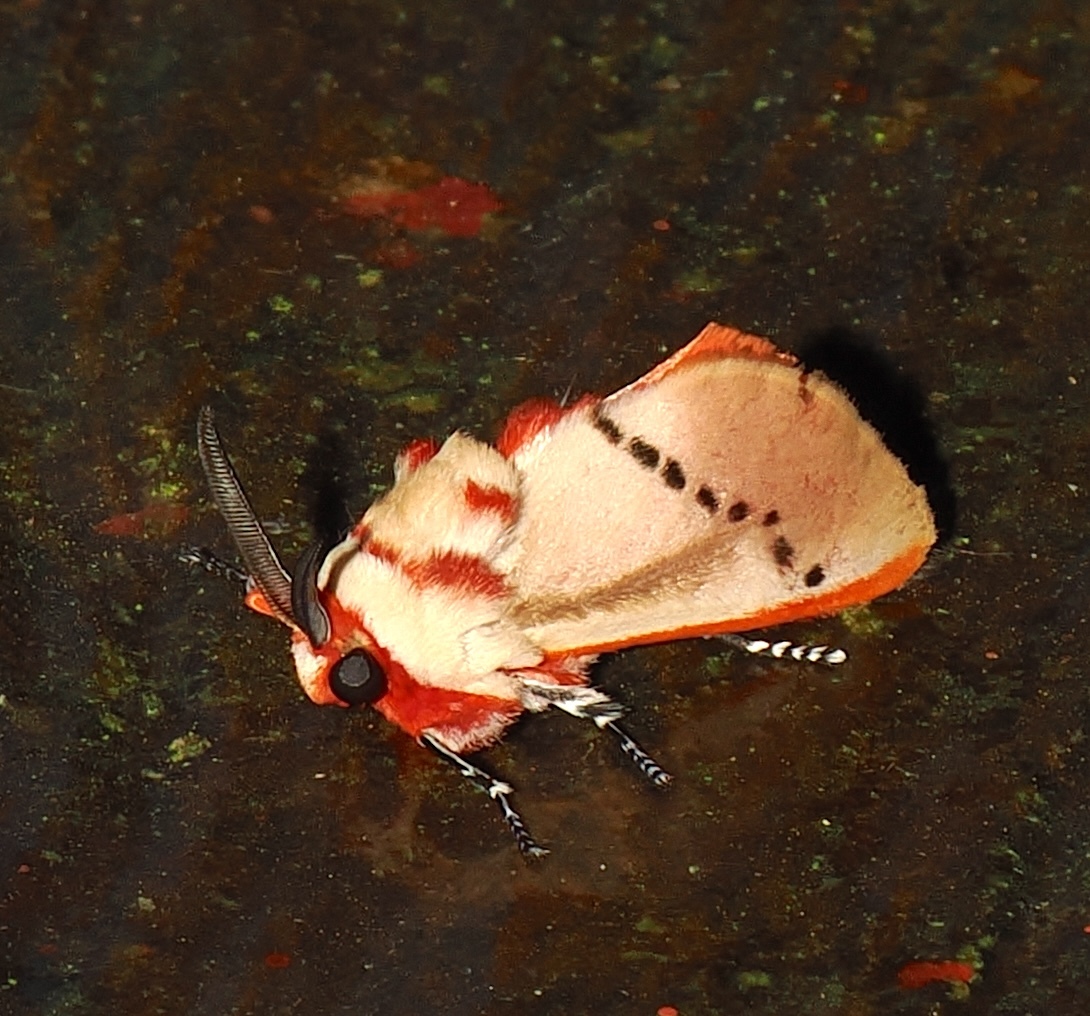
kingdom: Animalia
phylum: Arthropoda
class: Insecta
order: Lepidoptera
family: Megalopygidae
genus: Trosia
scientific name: Trosia fumosa
